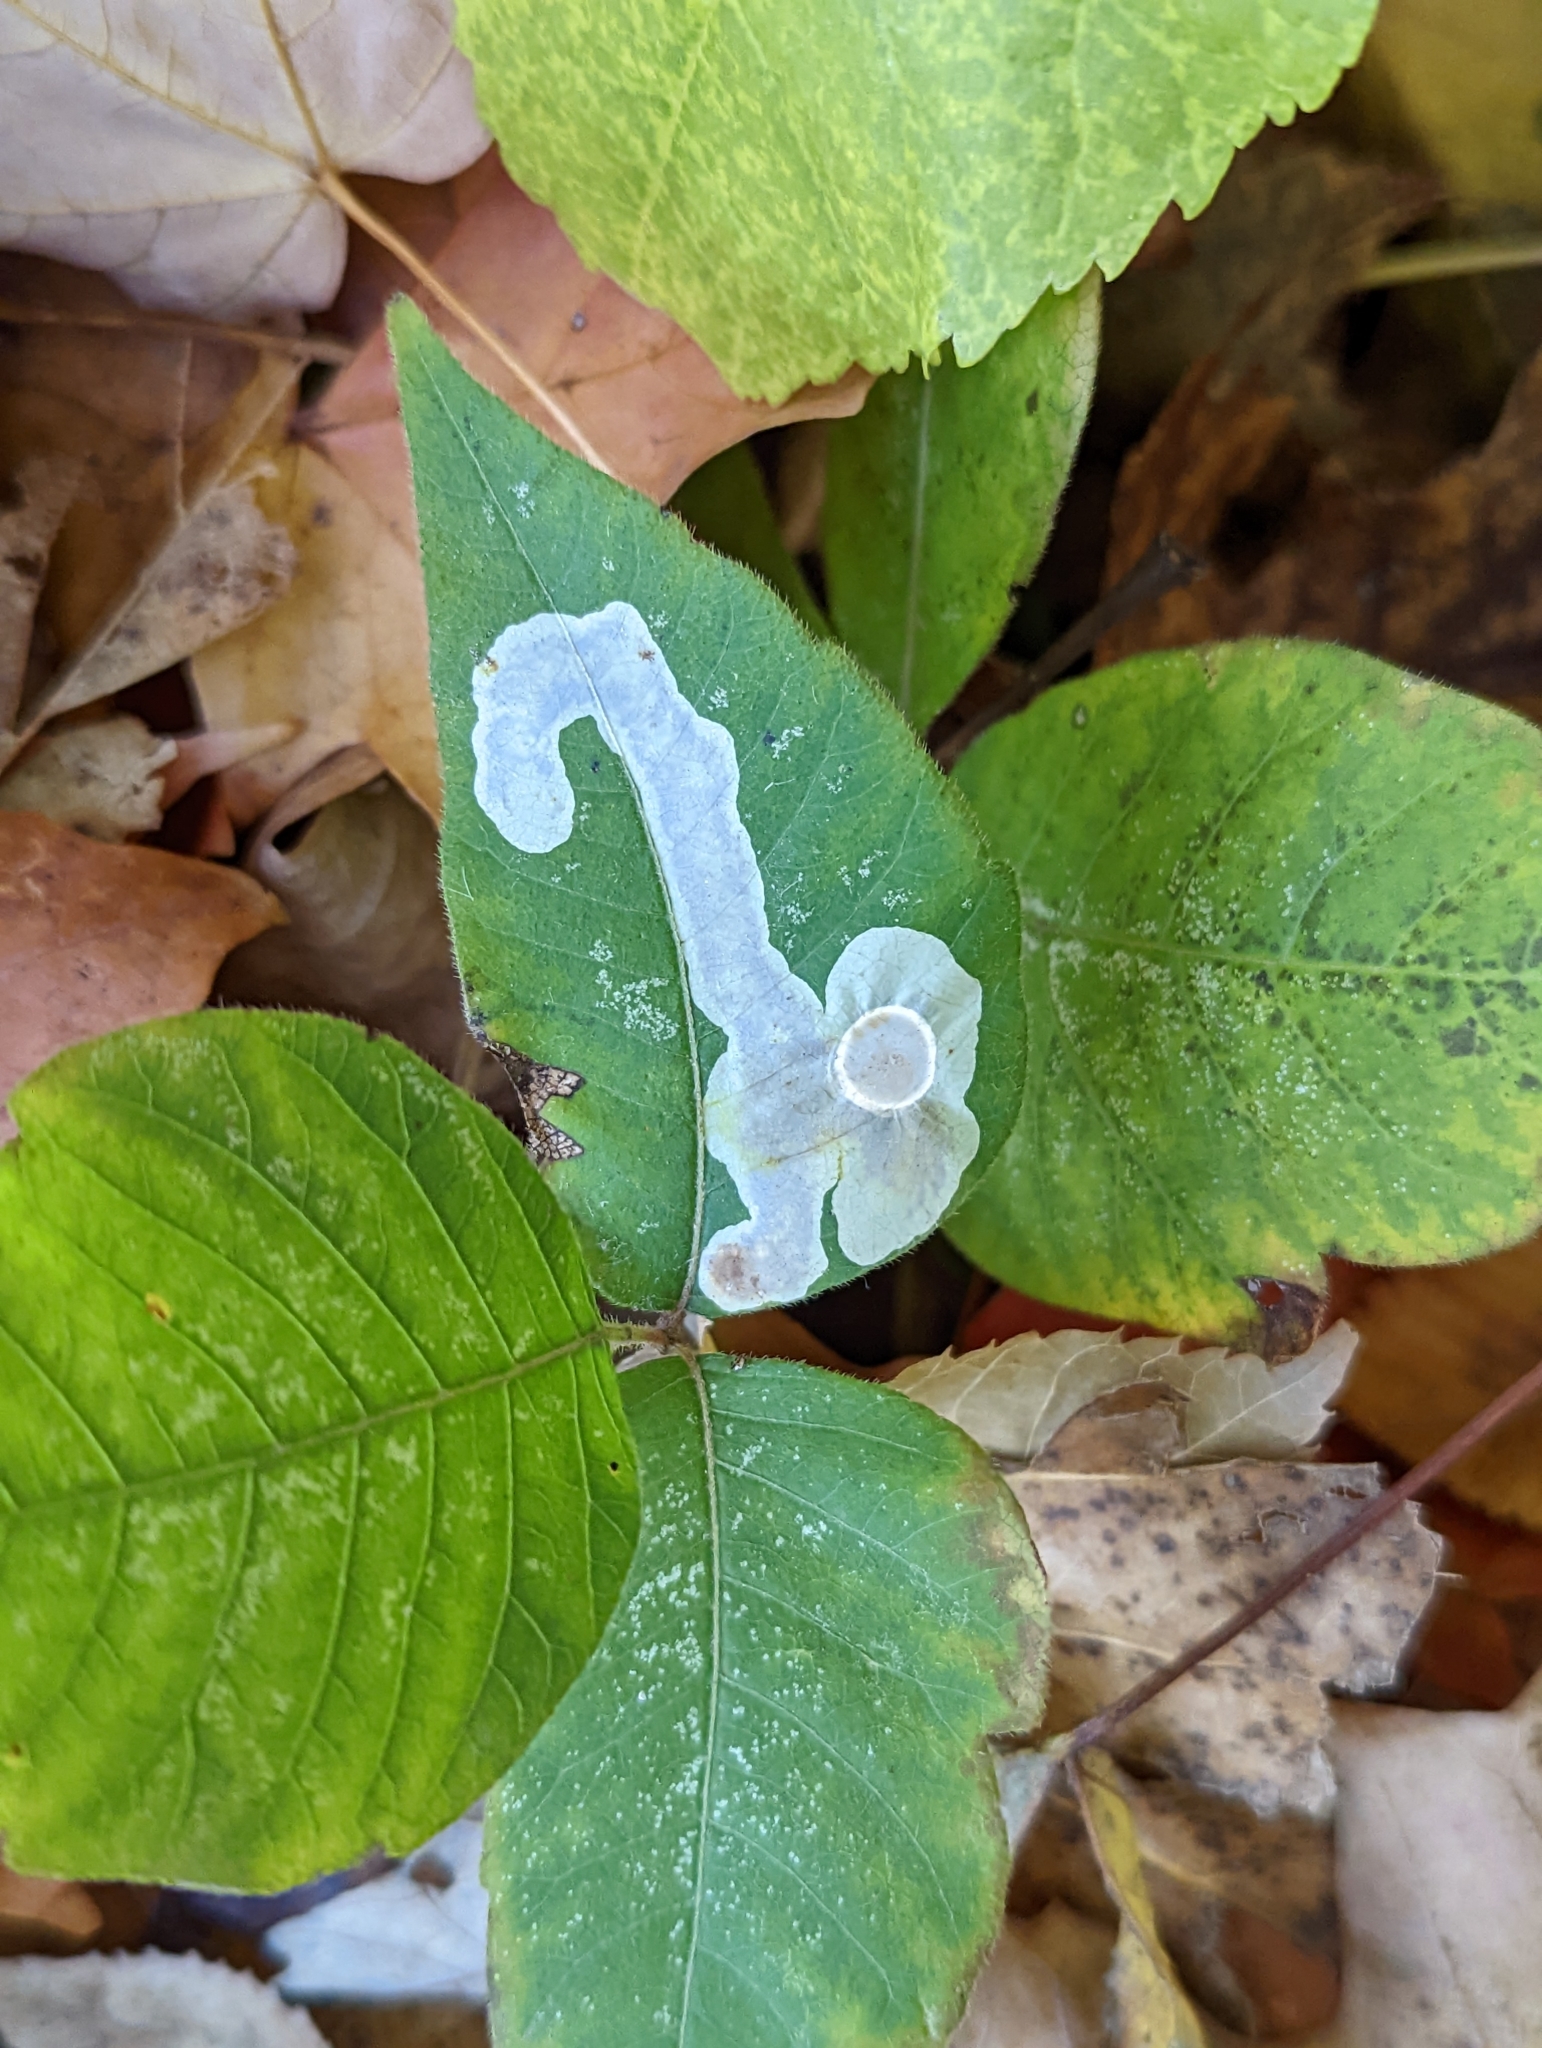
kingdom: Animalia
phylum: Arthropoda
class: Insecta
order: Lepidoptera
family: Gracillariidae
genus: Cameraria
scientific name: Cameraria guttifinitella
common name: Poison ivy leaf-miner moth
